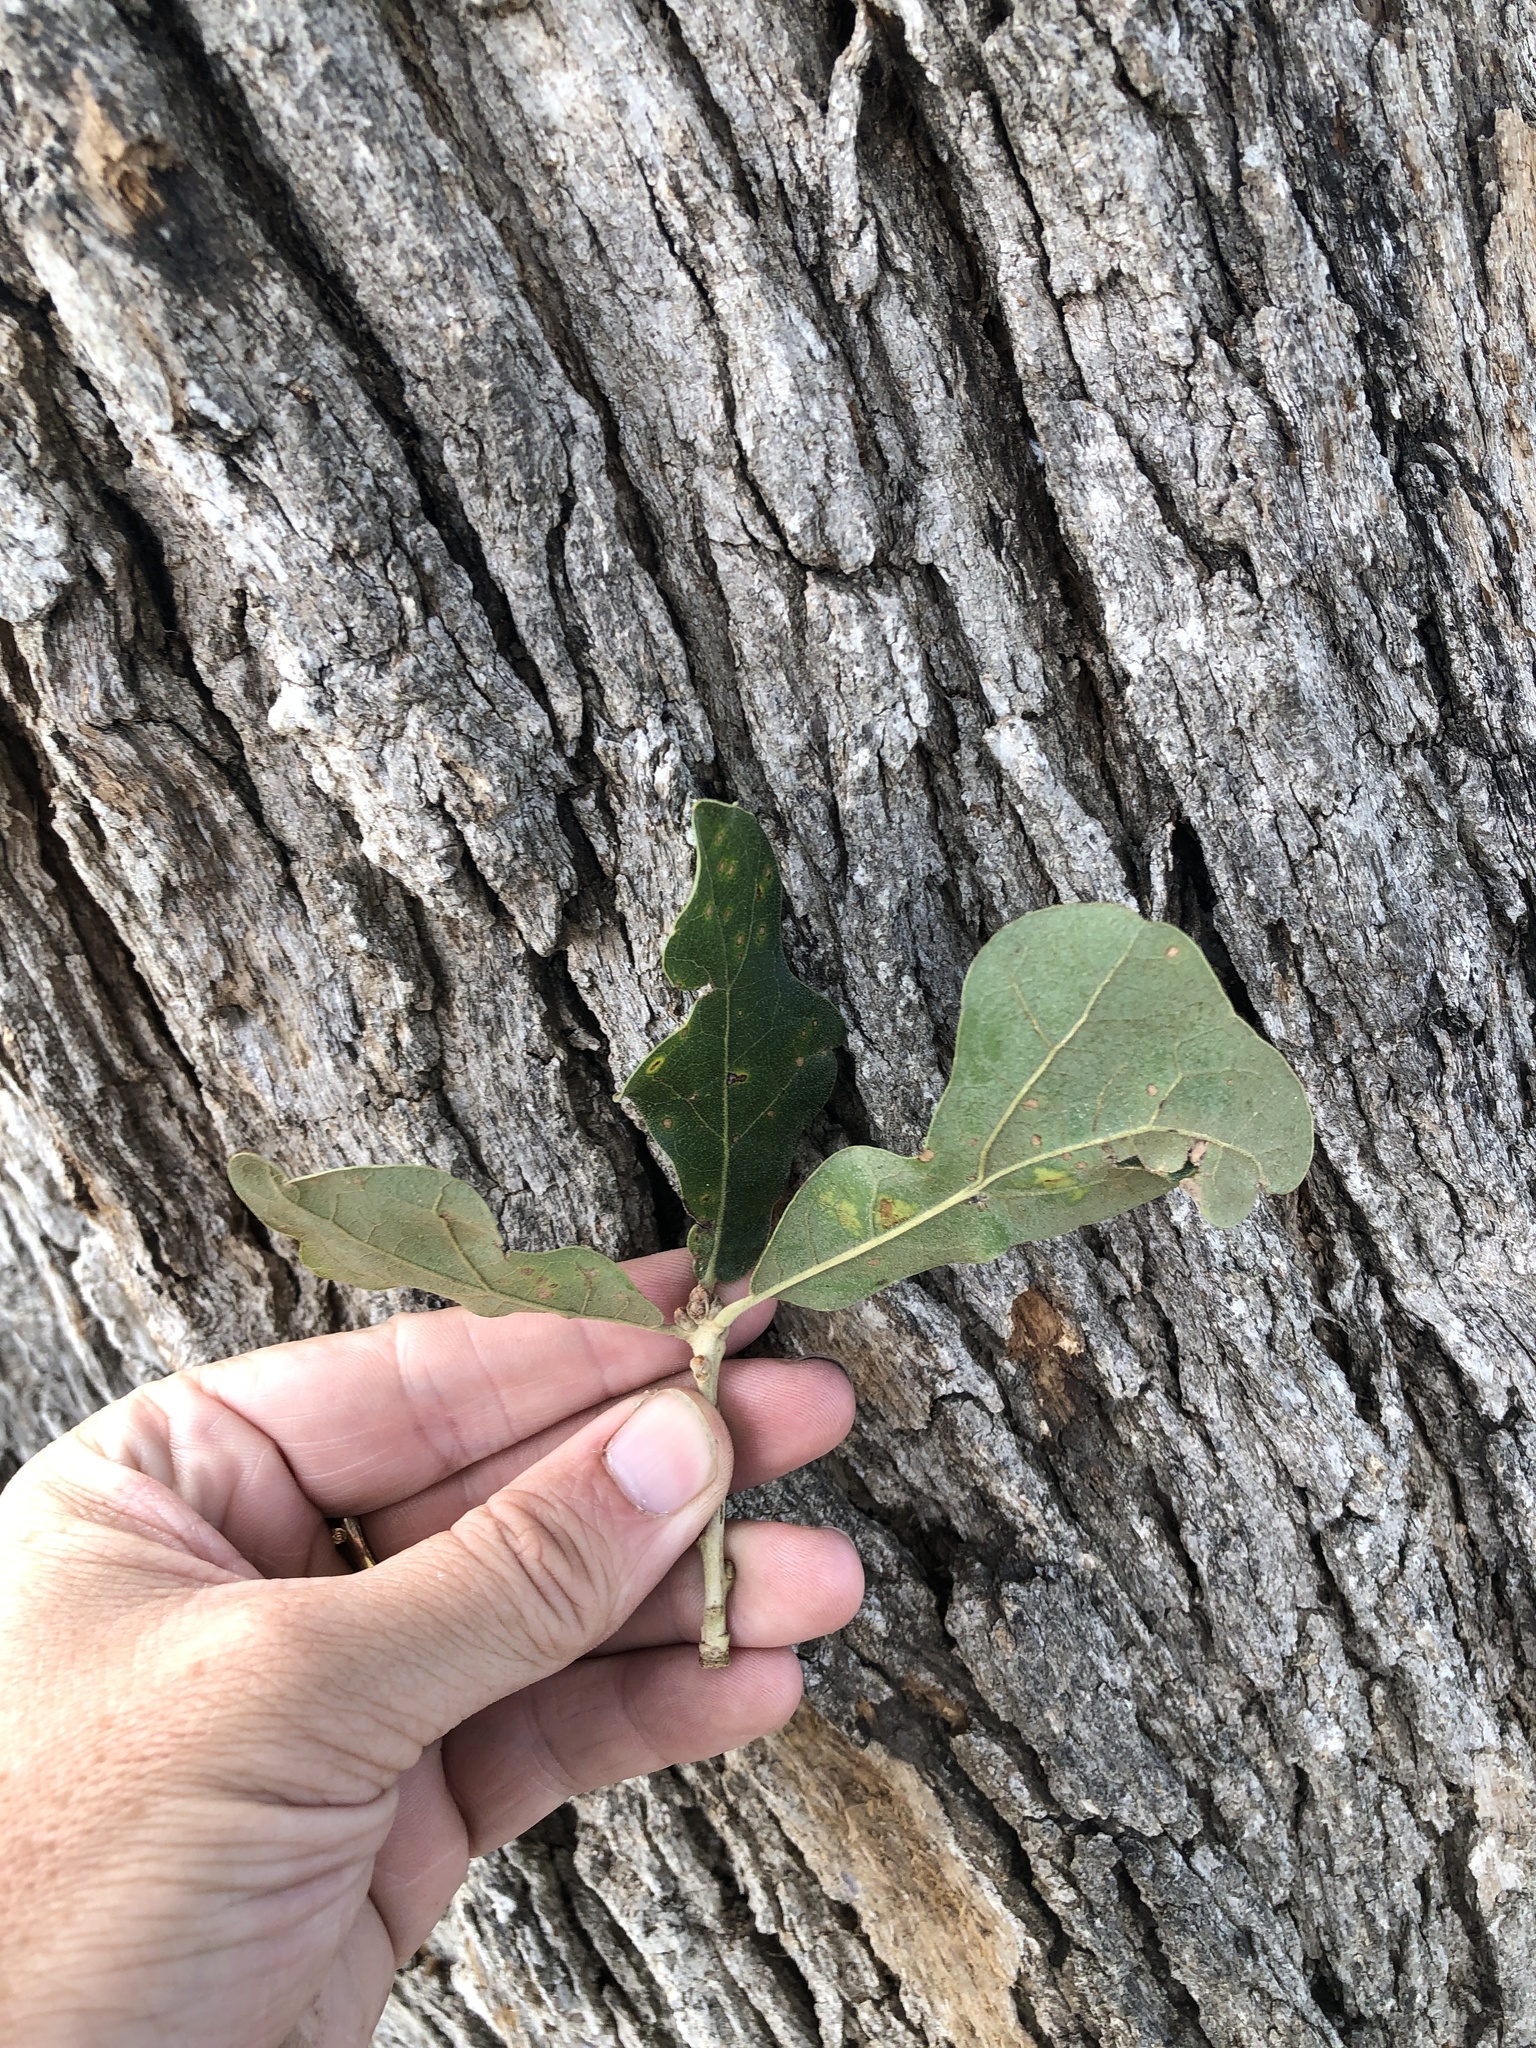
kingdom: Plantae
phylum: Tracheophyta
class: Magnoliopsida
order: Fagales
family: Fagaceae
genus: Quercus
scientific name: Quercus stellata
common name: Post oak
